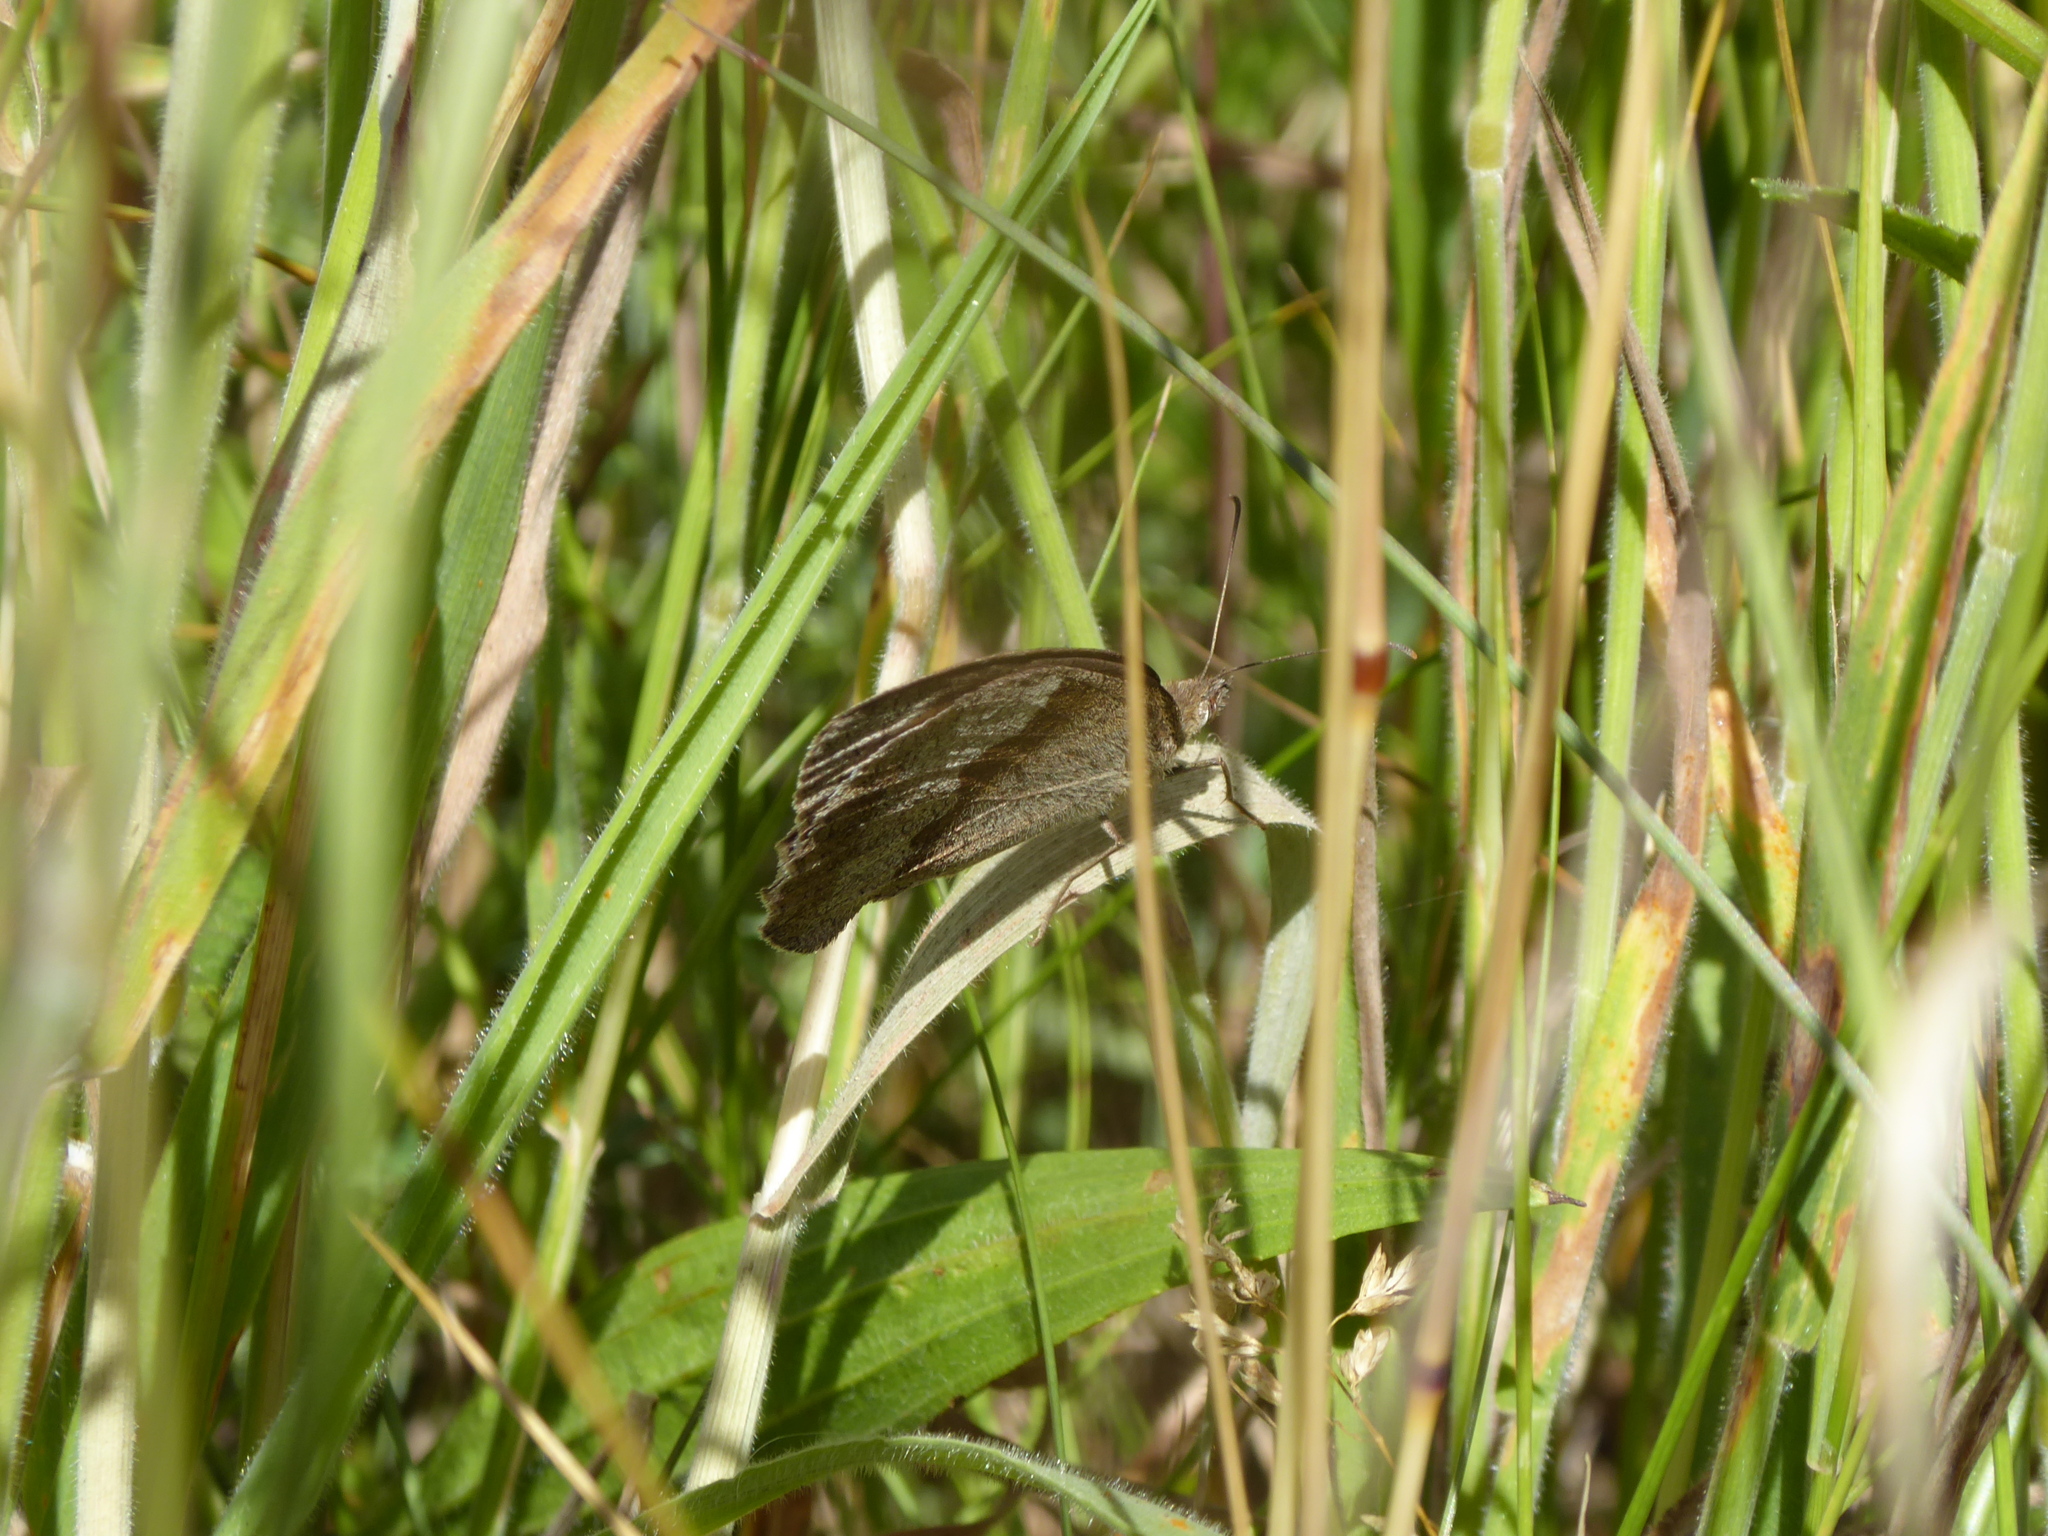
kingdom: Animalia
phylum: Arthropoda
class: Insecta
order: Lepidoptera
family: Nymphalidae
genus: Maniola
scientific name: Maniola jurtina
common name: Meadow brown
